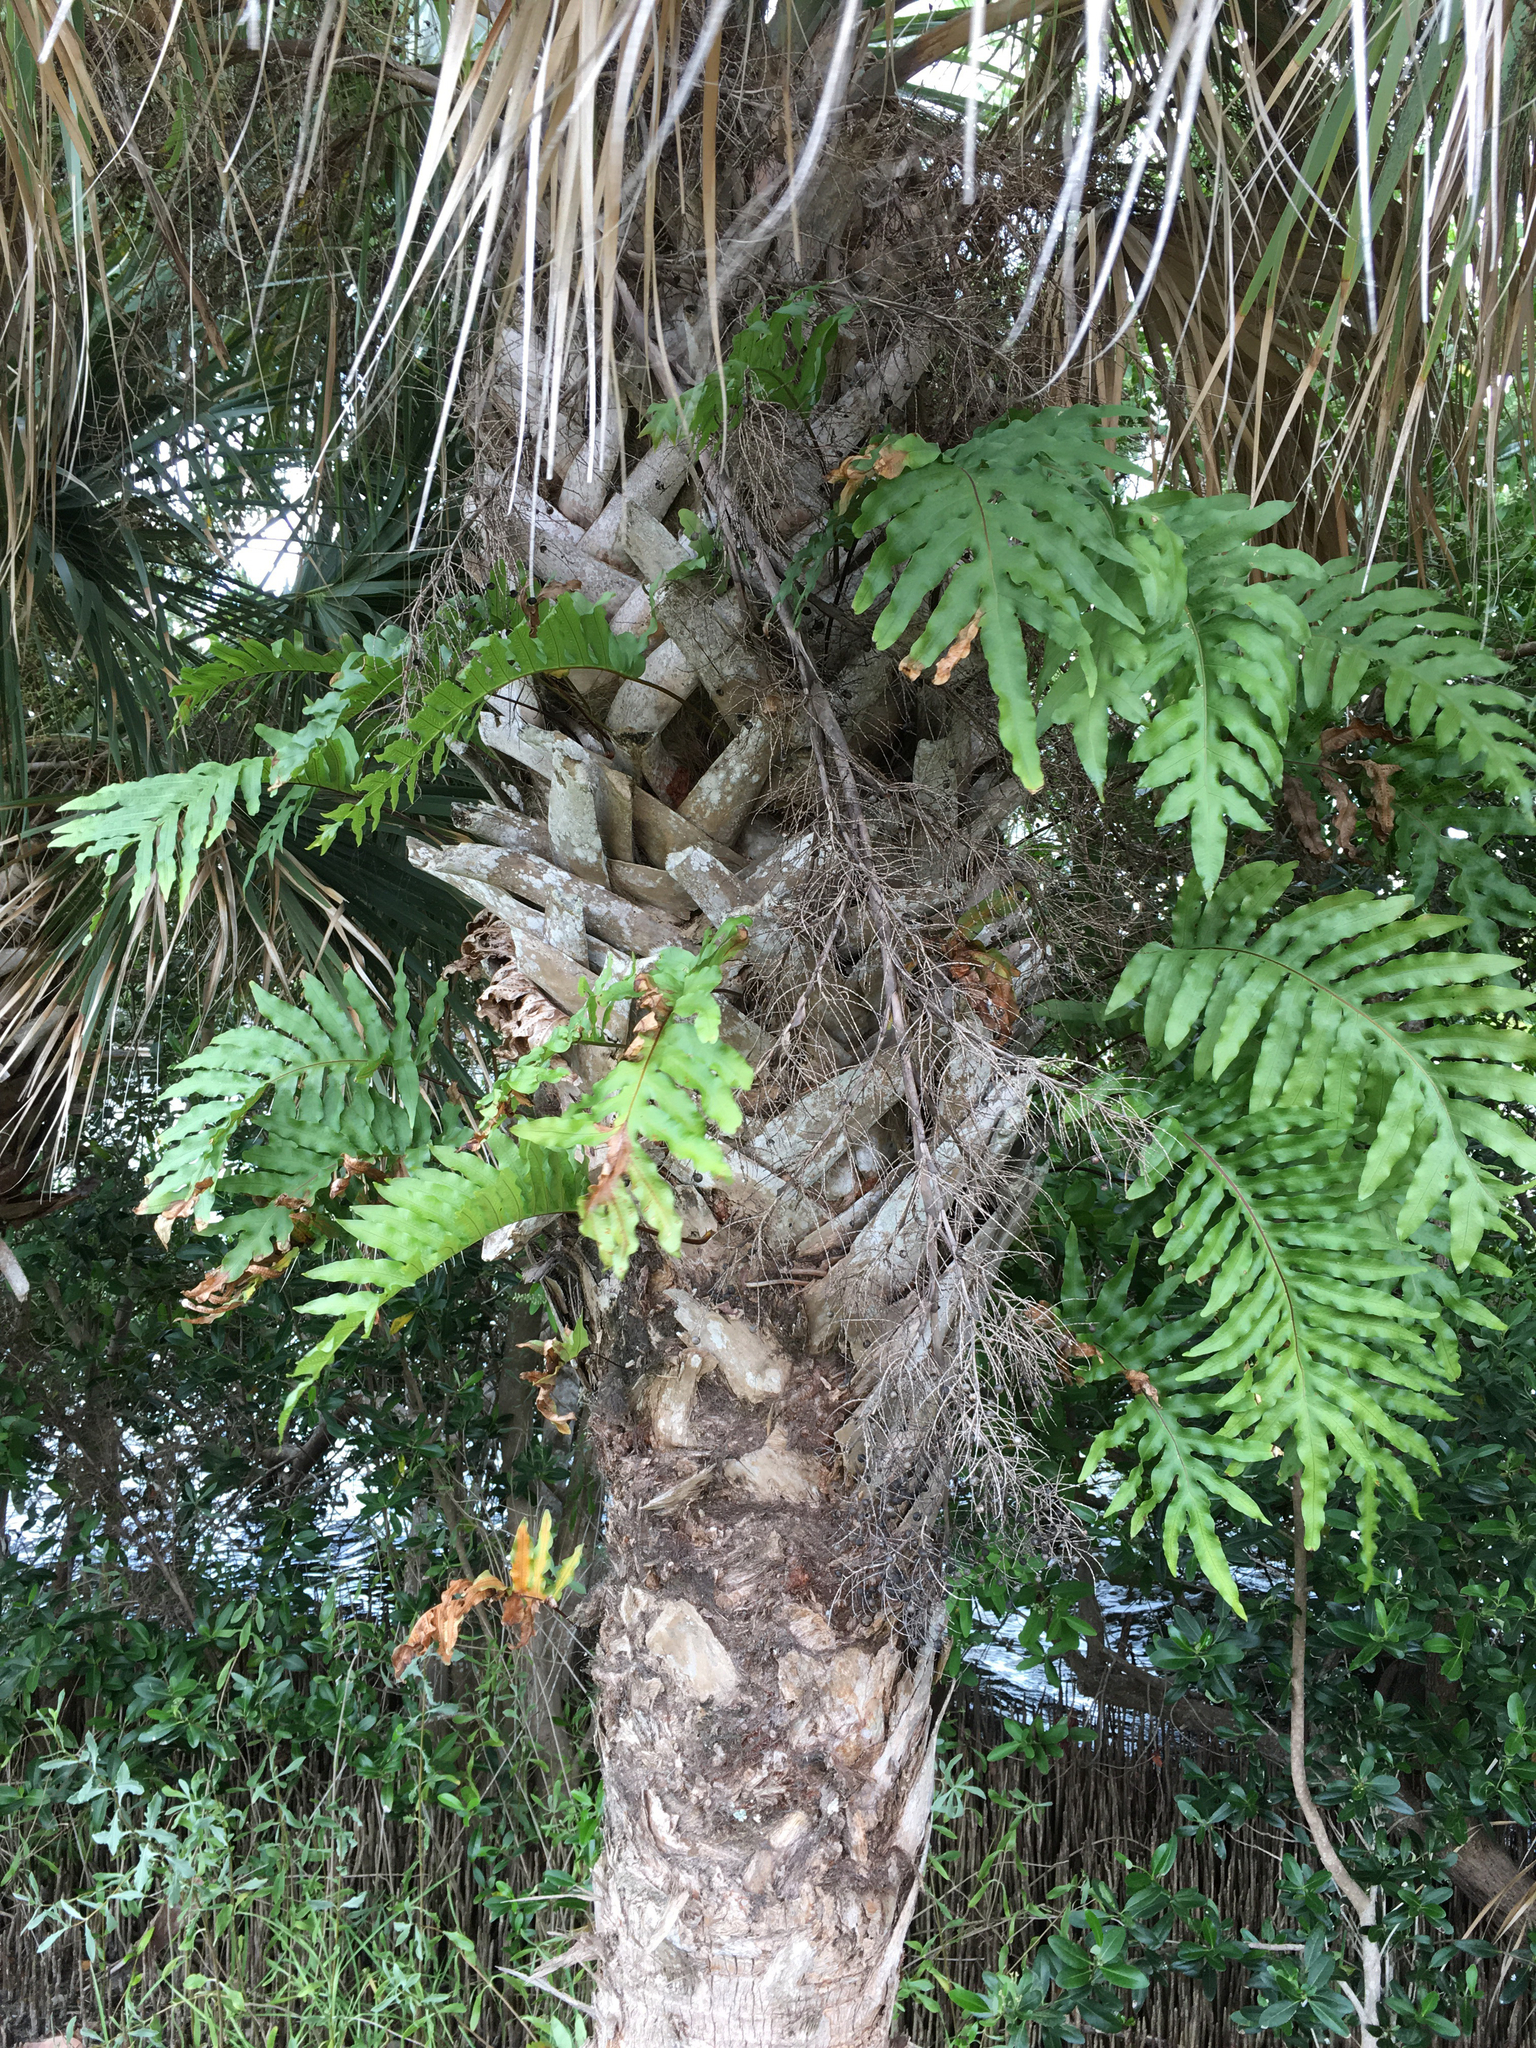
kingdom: Plantae
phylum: Tracheophyta
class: Polypodiopsida
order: Polypodiales
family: Polypodiaceae
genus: Phlebodium
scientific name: Phlebodium aureum
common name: Gold-foot fern
